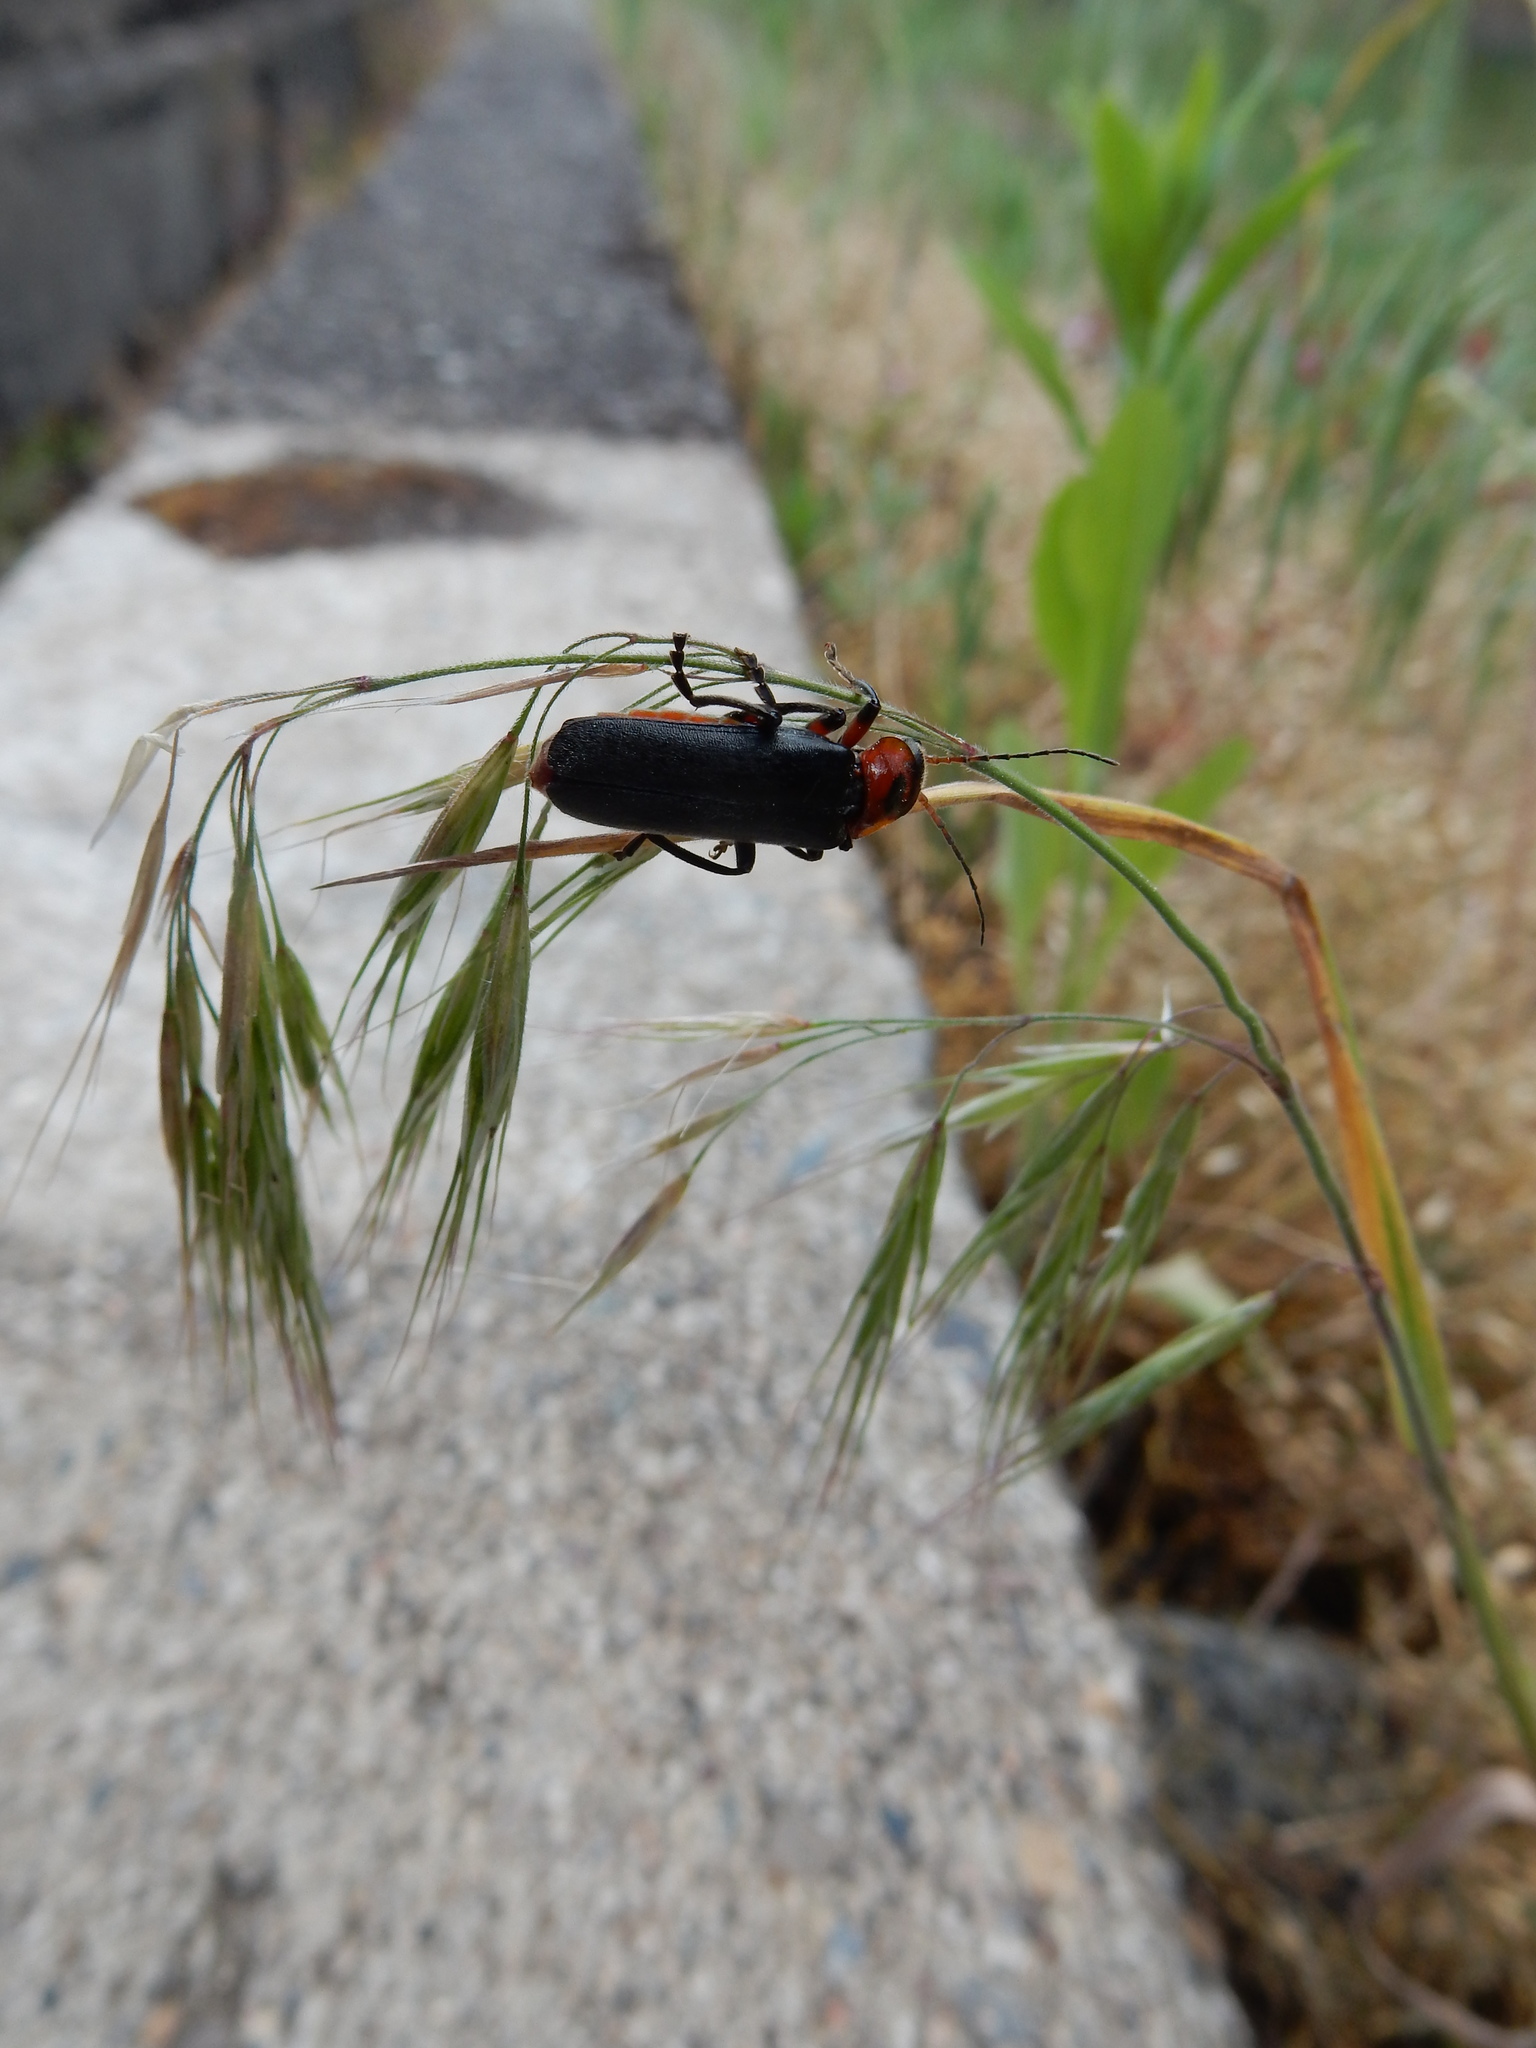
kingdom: Animalia
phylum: Arthropoda
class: Insecta
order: Coleoptera
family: Cantharidae
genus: Cantharis
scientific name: Cantharis rustica
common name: Soldier beetle
